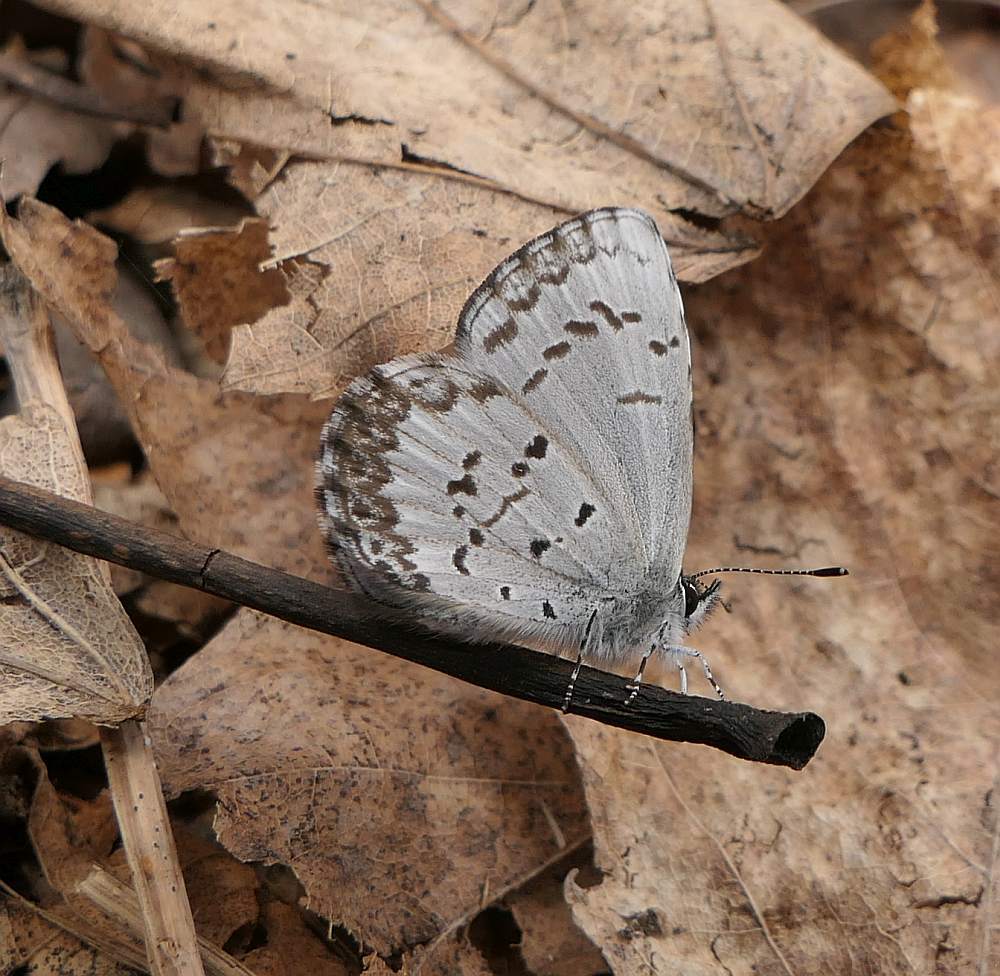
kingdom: Animalia
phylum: Arthropoda
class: Insecta
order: Lepidoptera
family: Lycaenidae
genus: Celastrina
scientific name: Celastrina lucia
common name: Lucia azure
